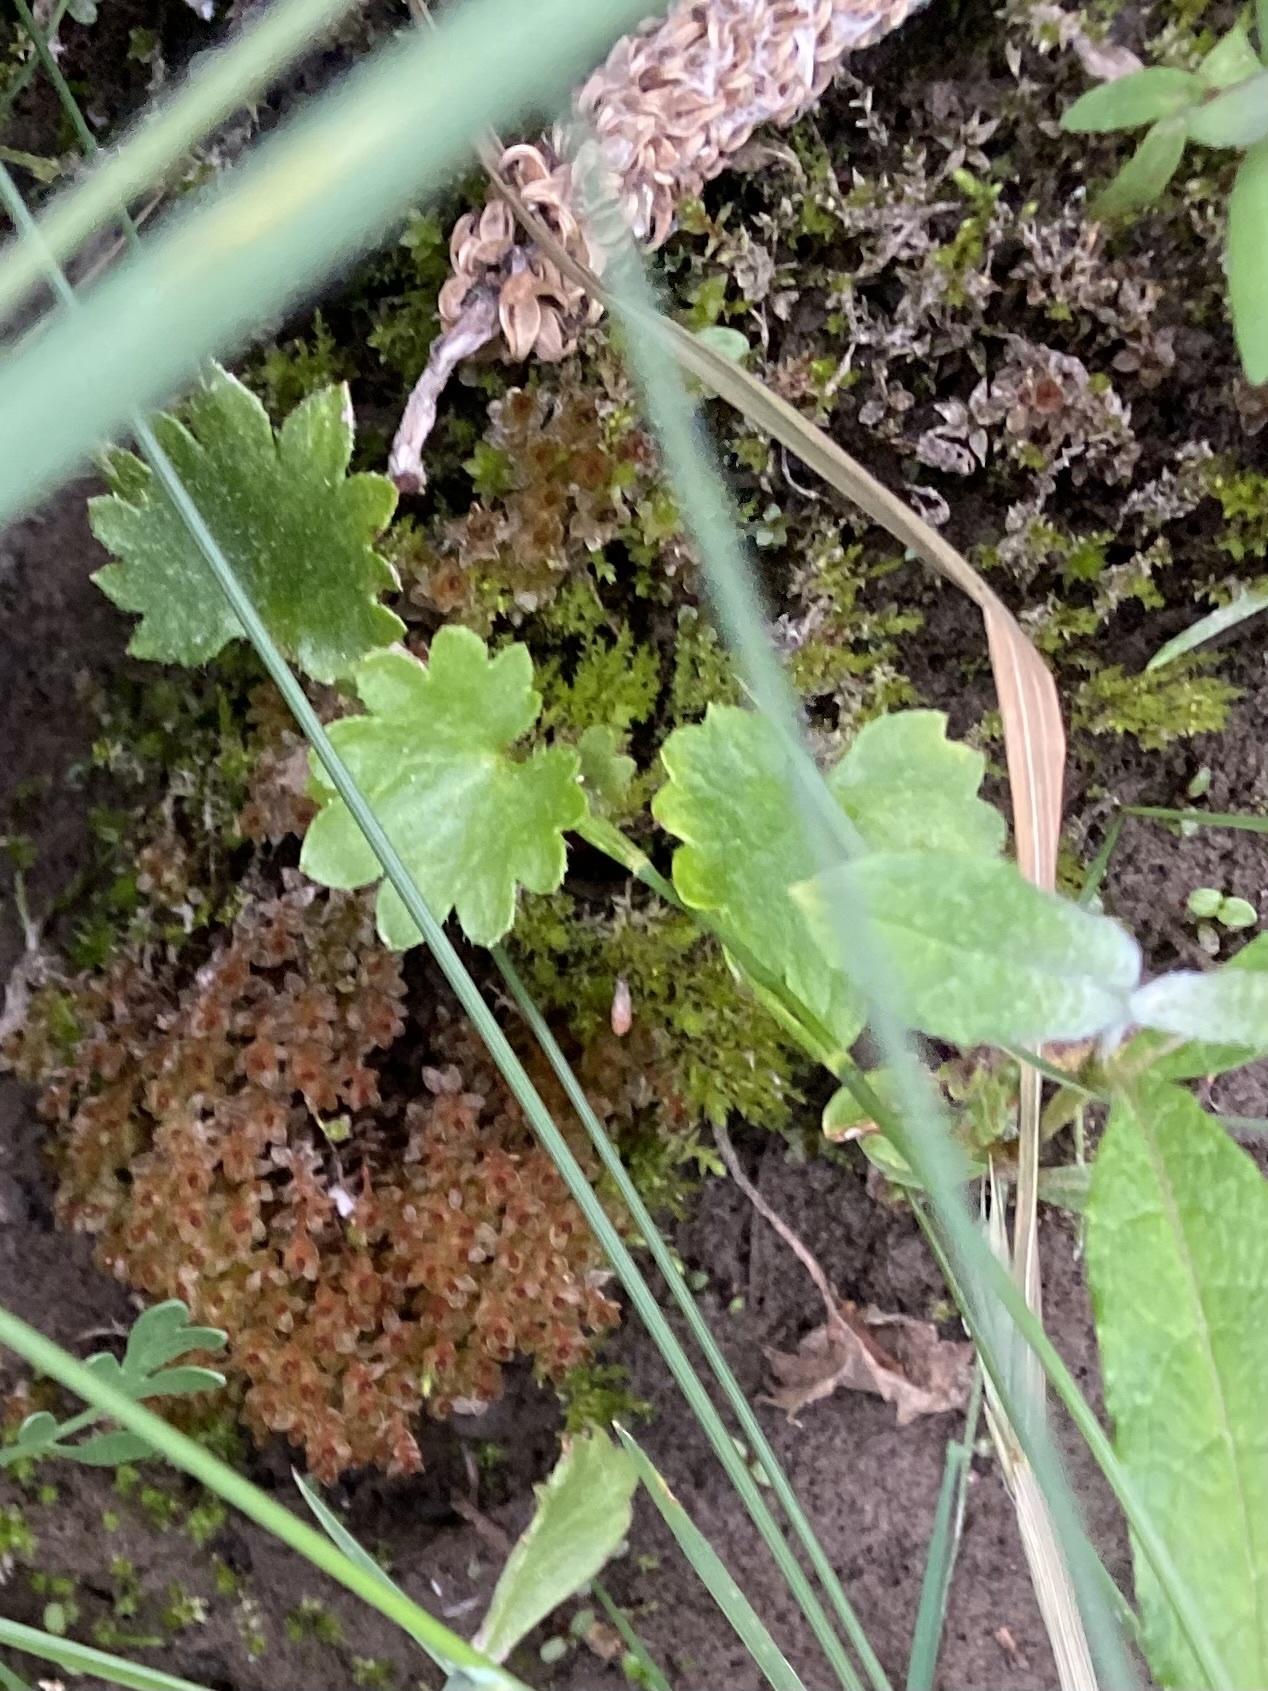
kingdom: Plantae
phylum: Tracheophyta
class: Magnoliopsida
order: Saxifragales
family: Saxifragaceae
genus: Micranthes
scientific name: Micranthes nelsoniana
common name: Nelson's saxifrage
